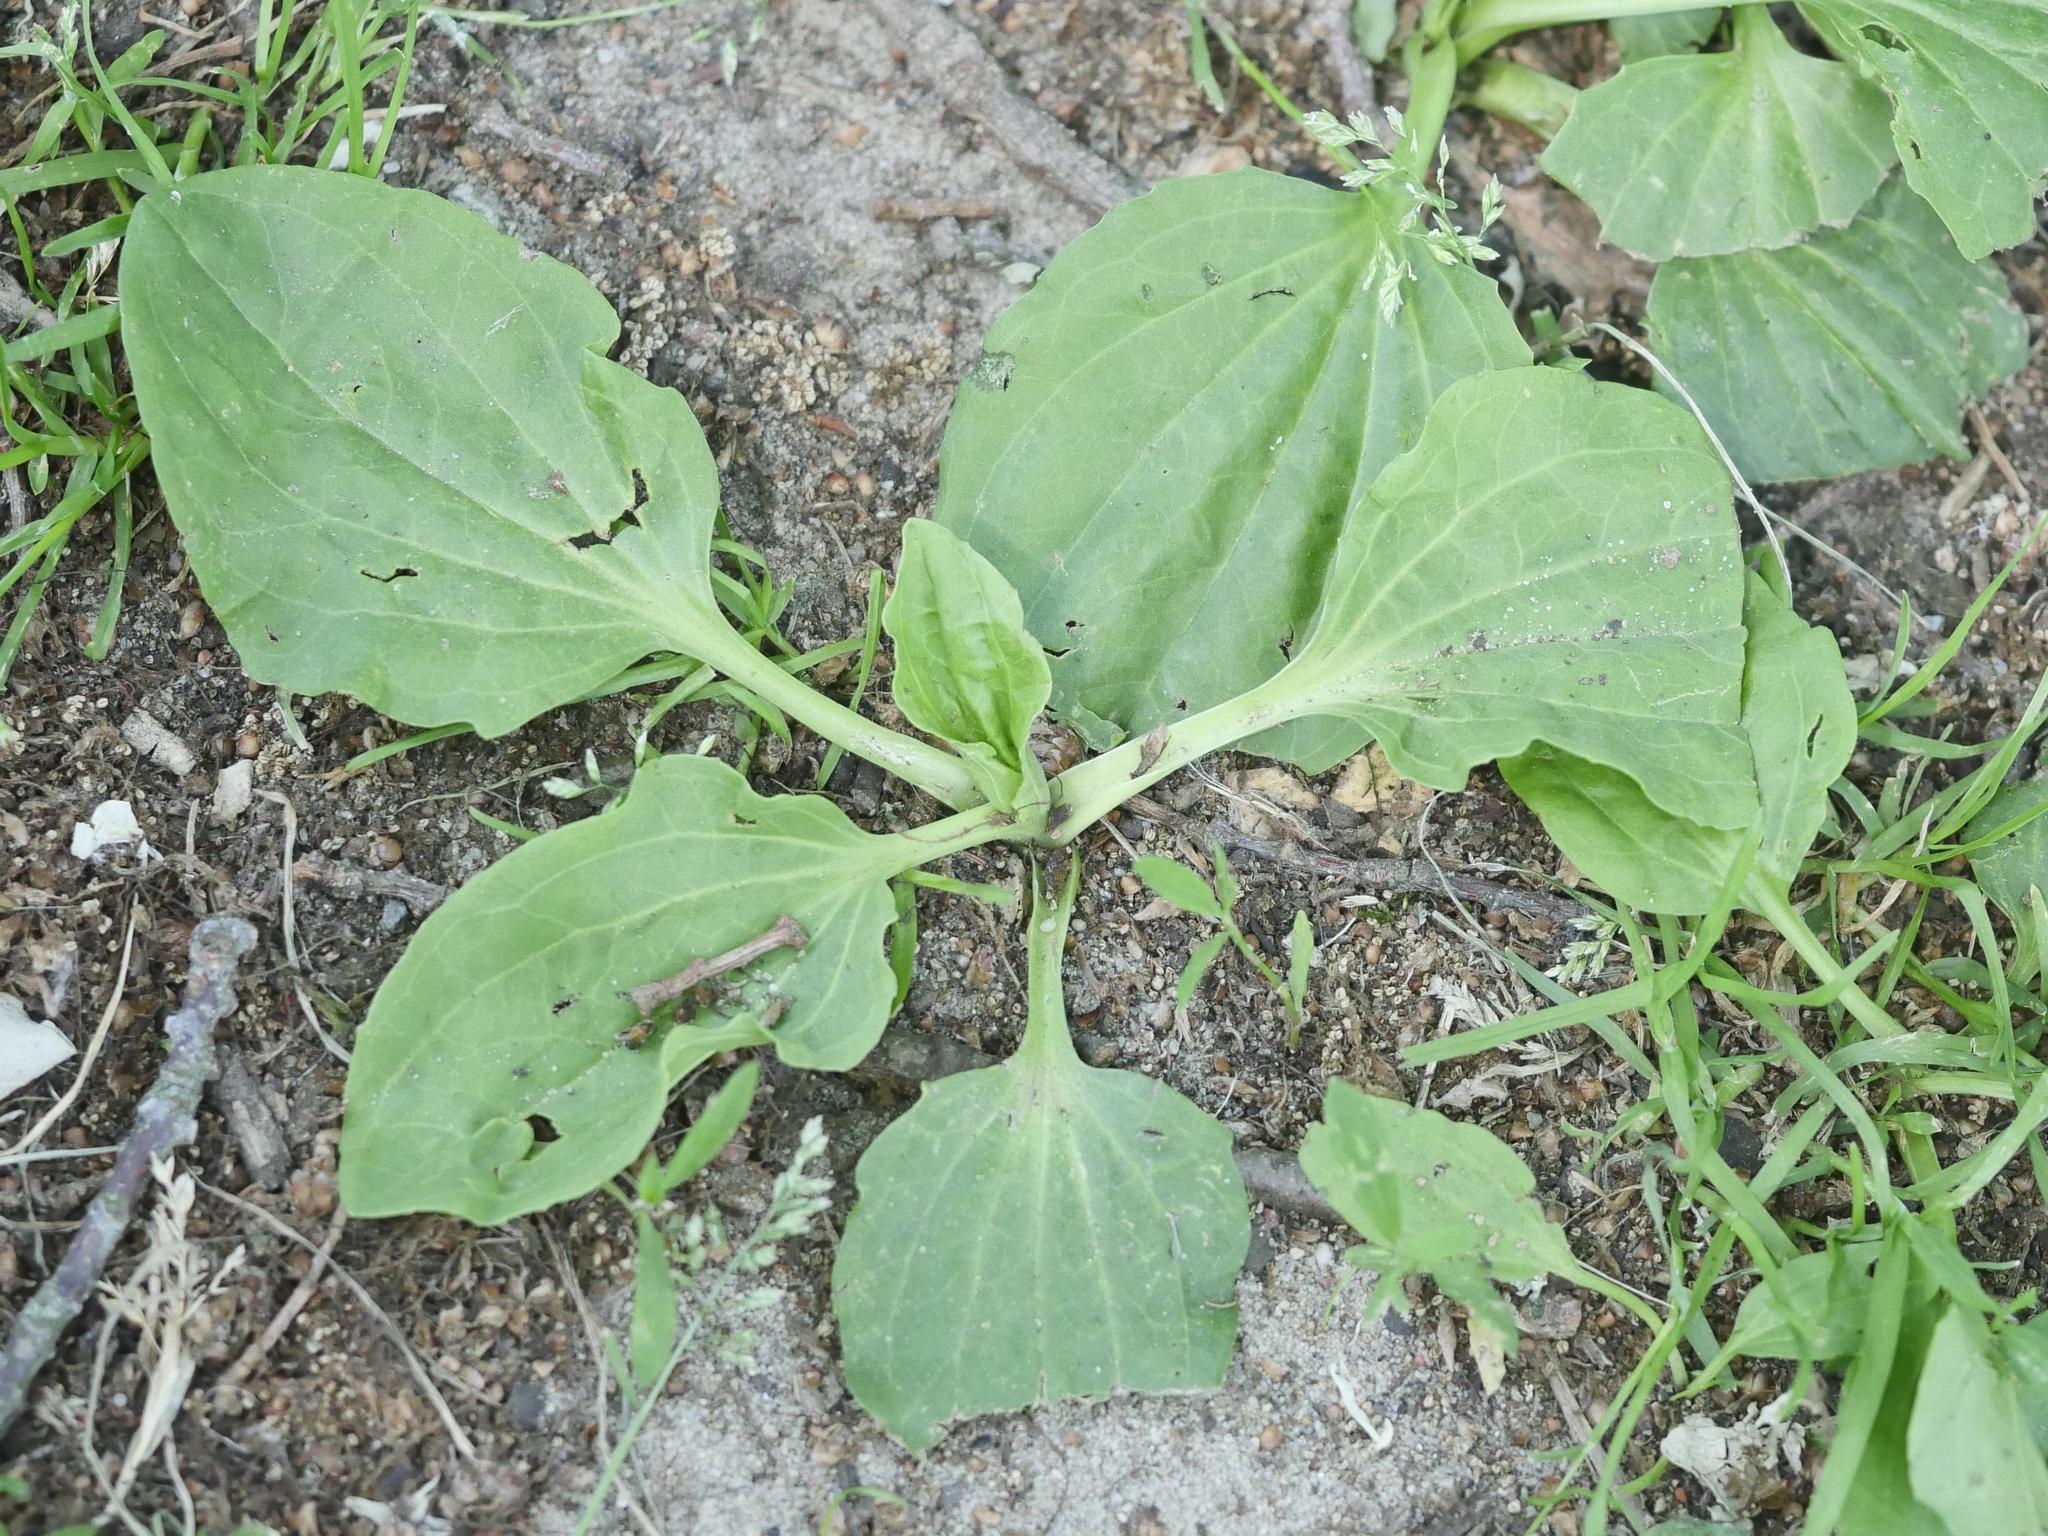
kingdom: Plantae
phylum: Tracheophyta
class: Magnoliopsida
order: Lamiales
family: Plantaginaceae
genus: Plantago
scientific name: Plantago major
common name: Common plantain
